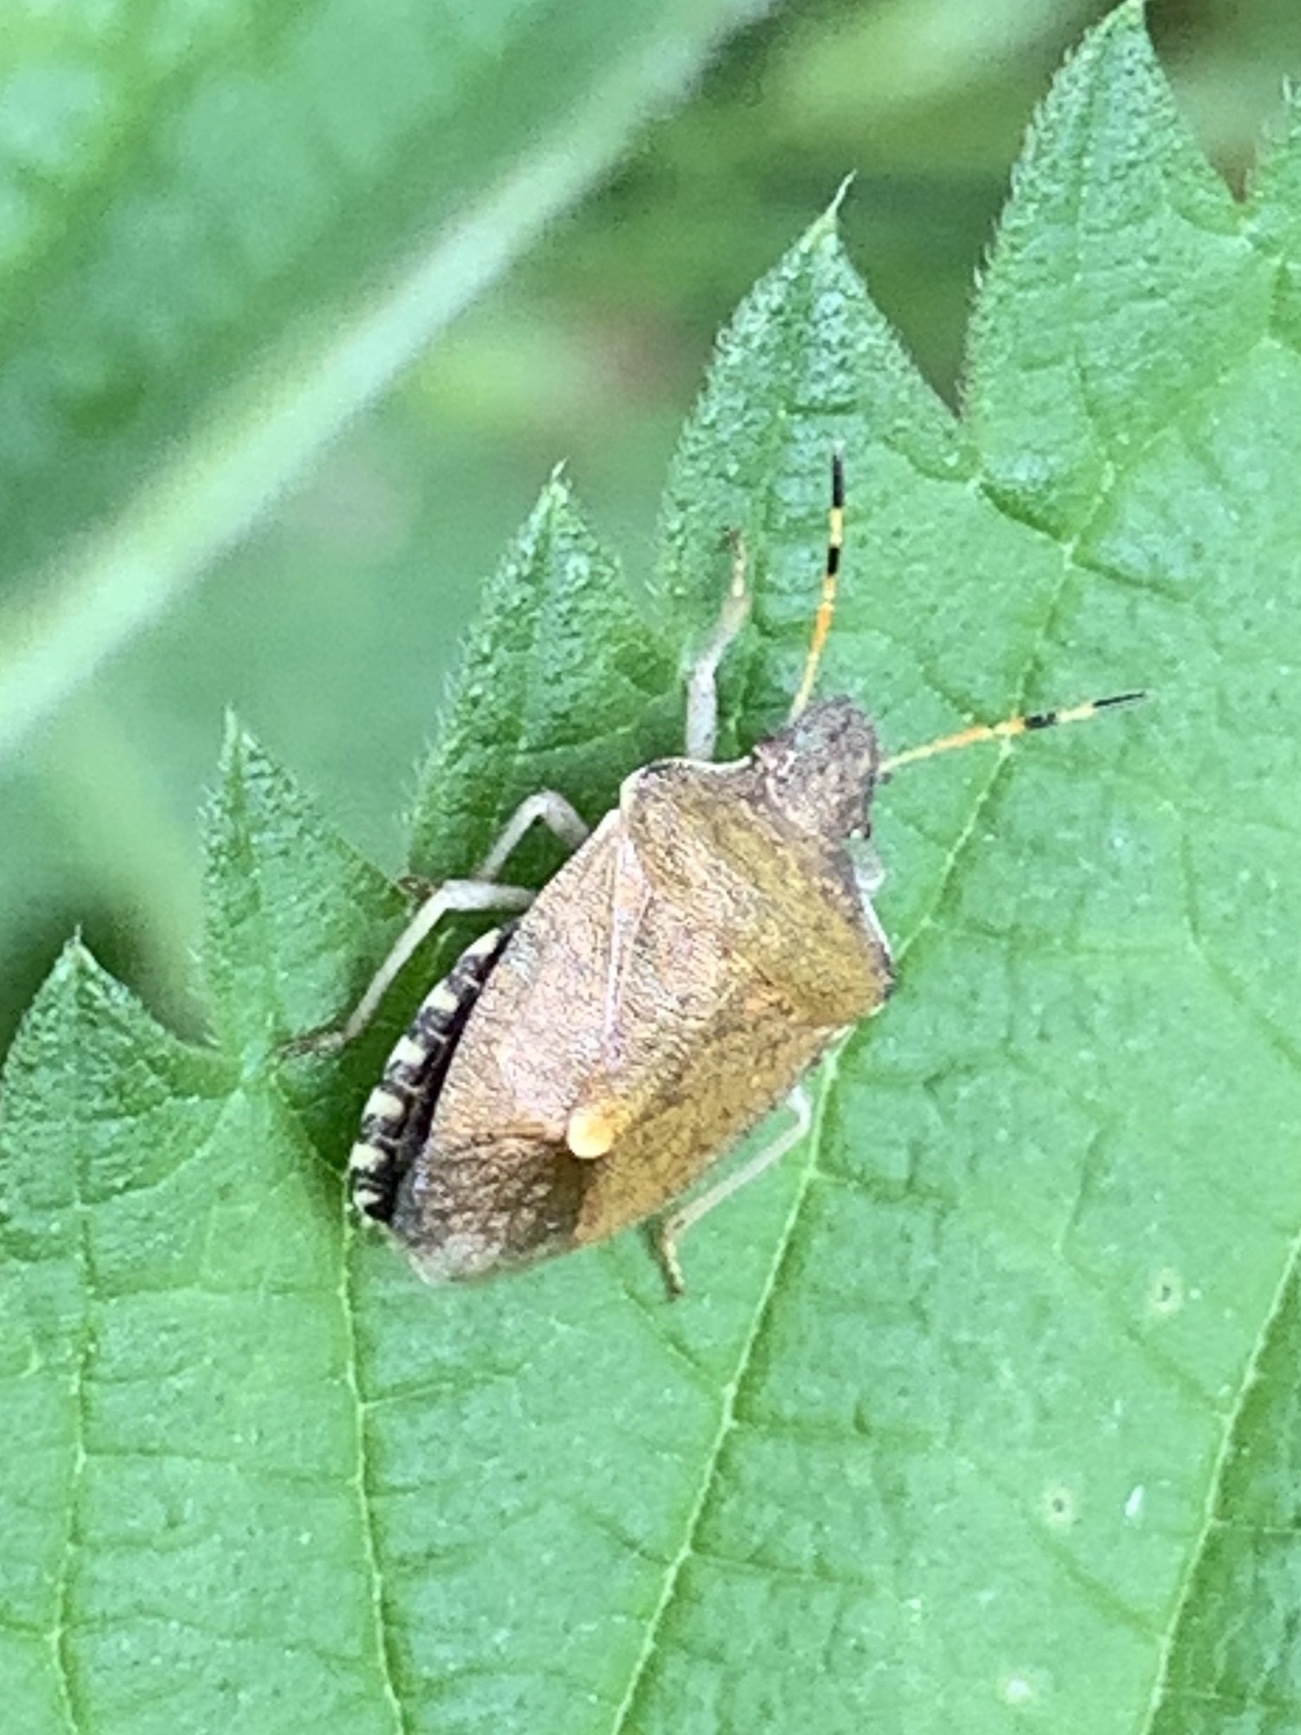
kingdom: Animalia
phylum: Arthropoda
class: Insecta
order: Hemiptera
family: Pentatomidae
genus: Holcostethus
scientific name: Holcostethus strictus
